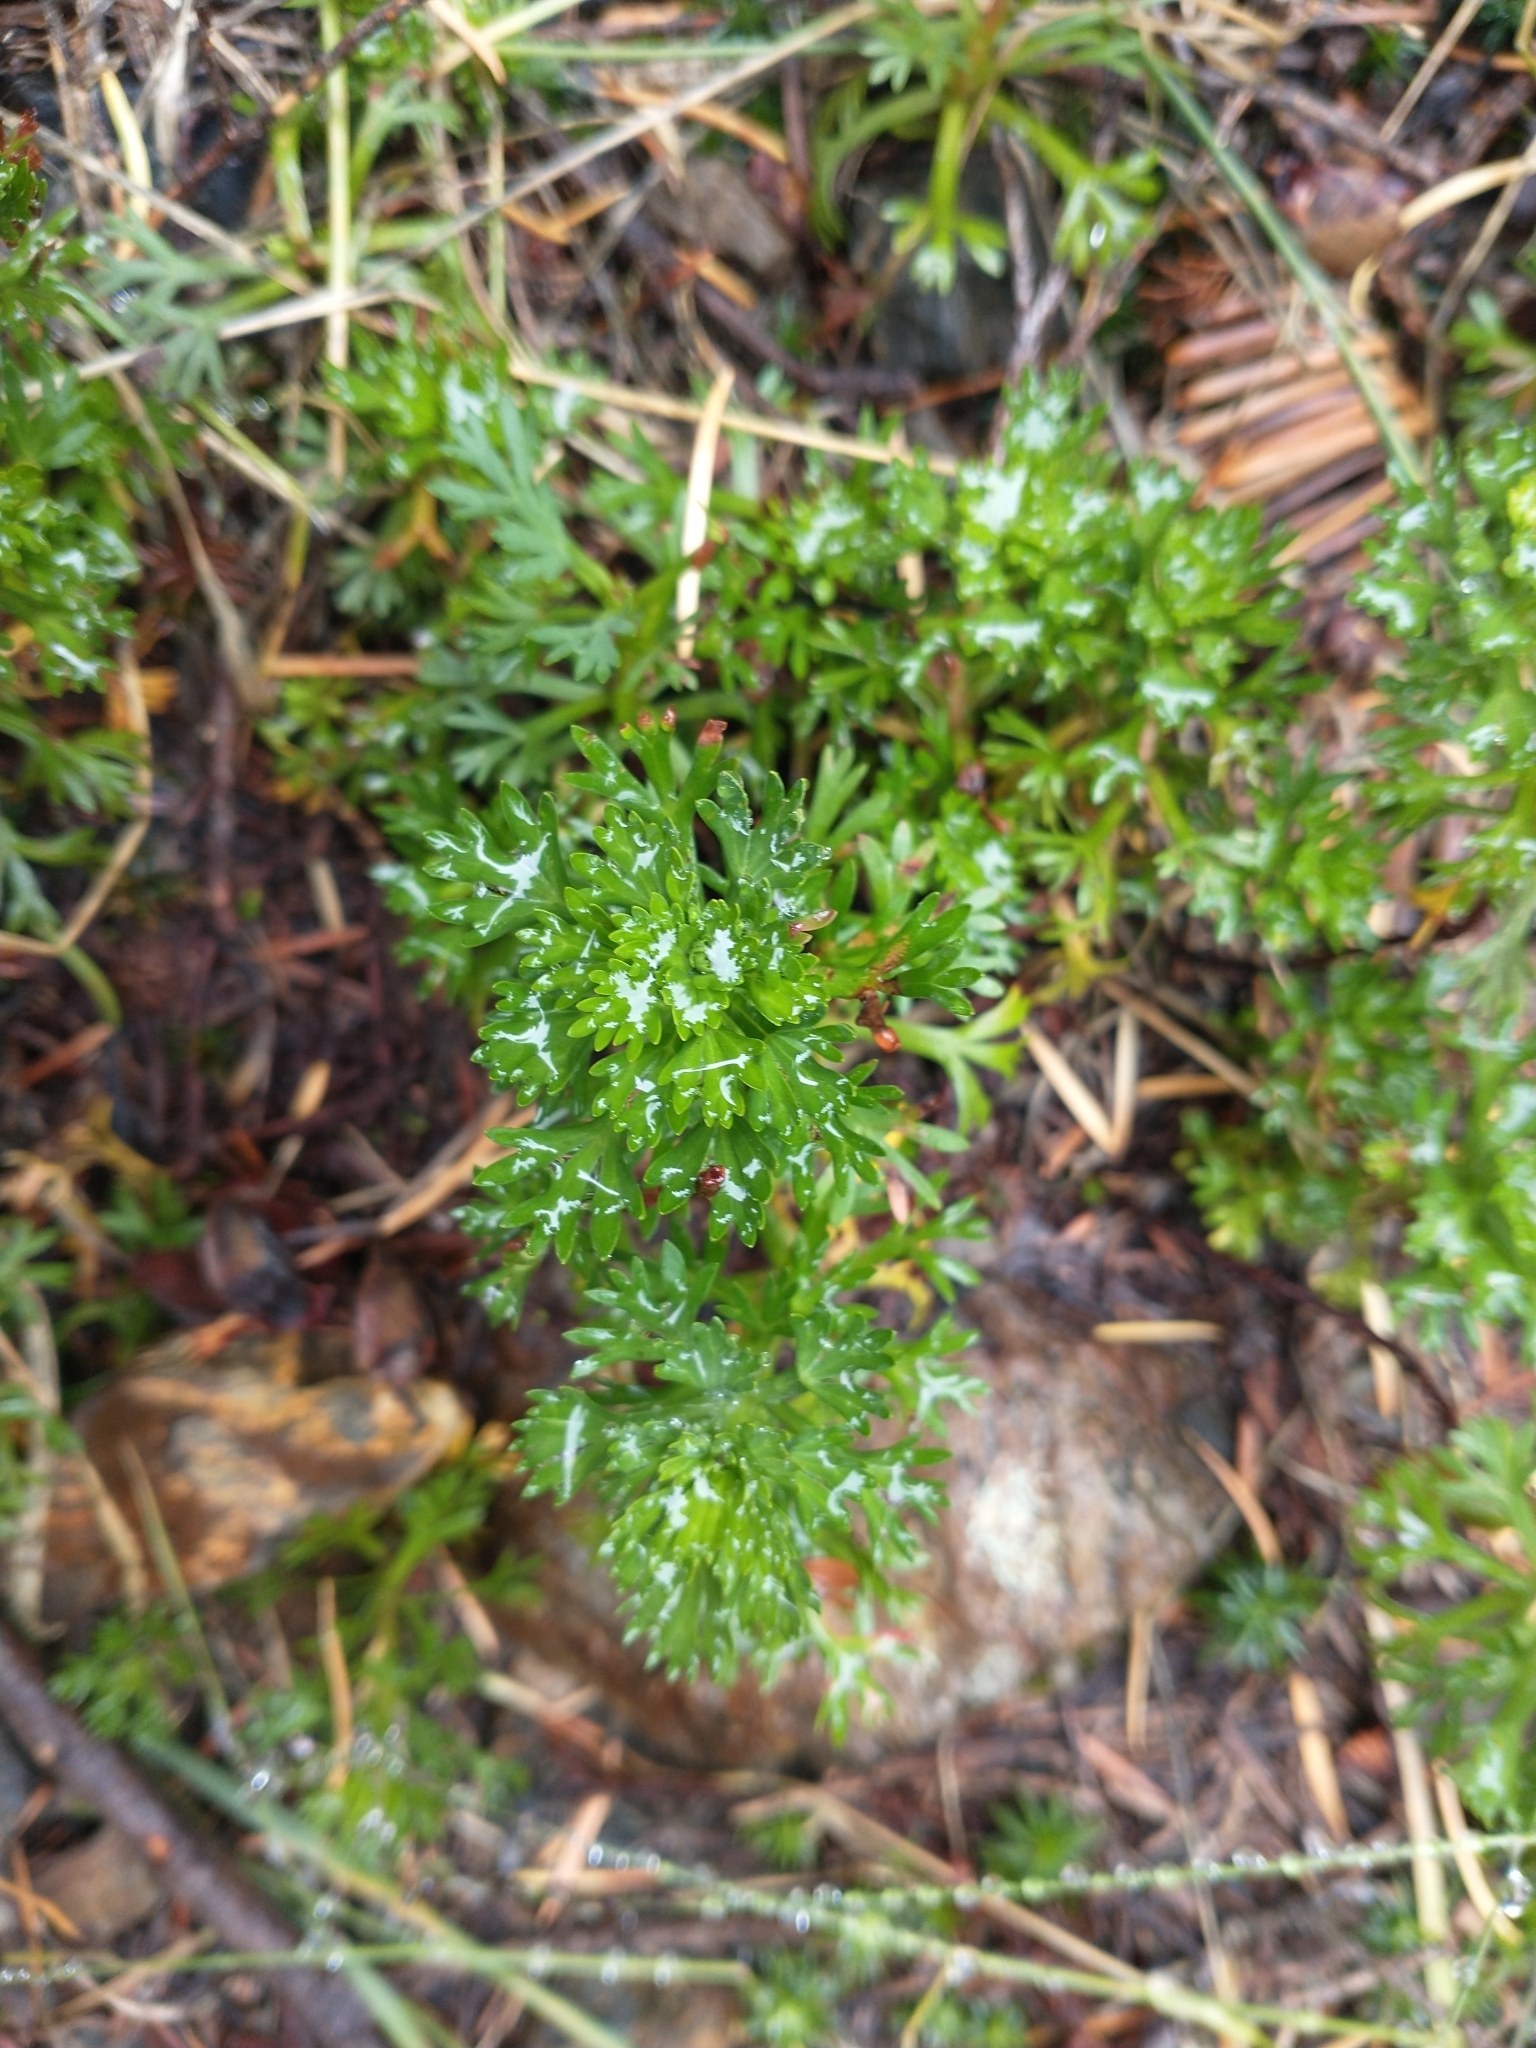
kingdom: Plantae
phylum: Tracheophyta
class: Magnoliopsida
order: Rosales
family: Rosaceae
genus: Luetkea
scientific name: Luetkea pectinata
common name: Partridgefoot
